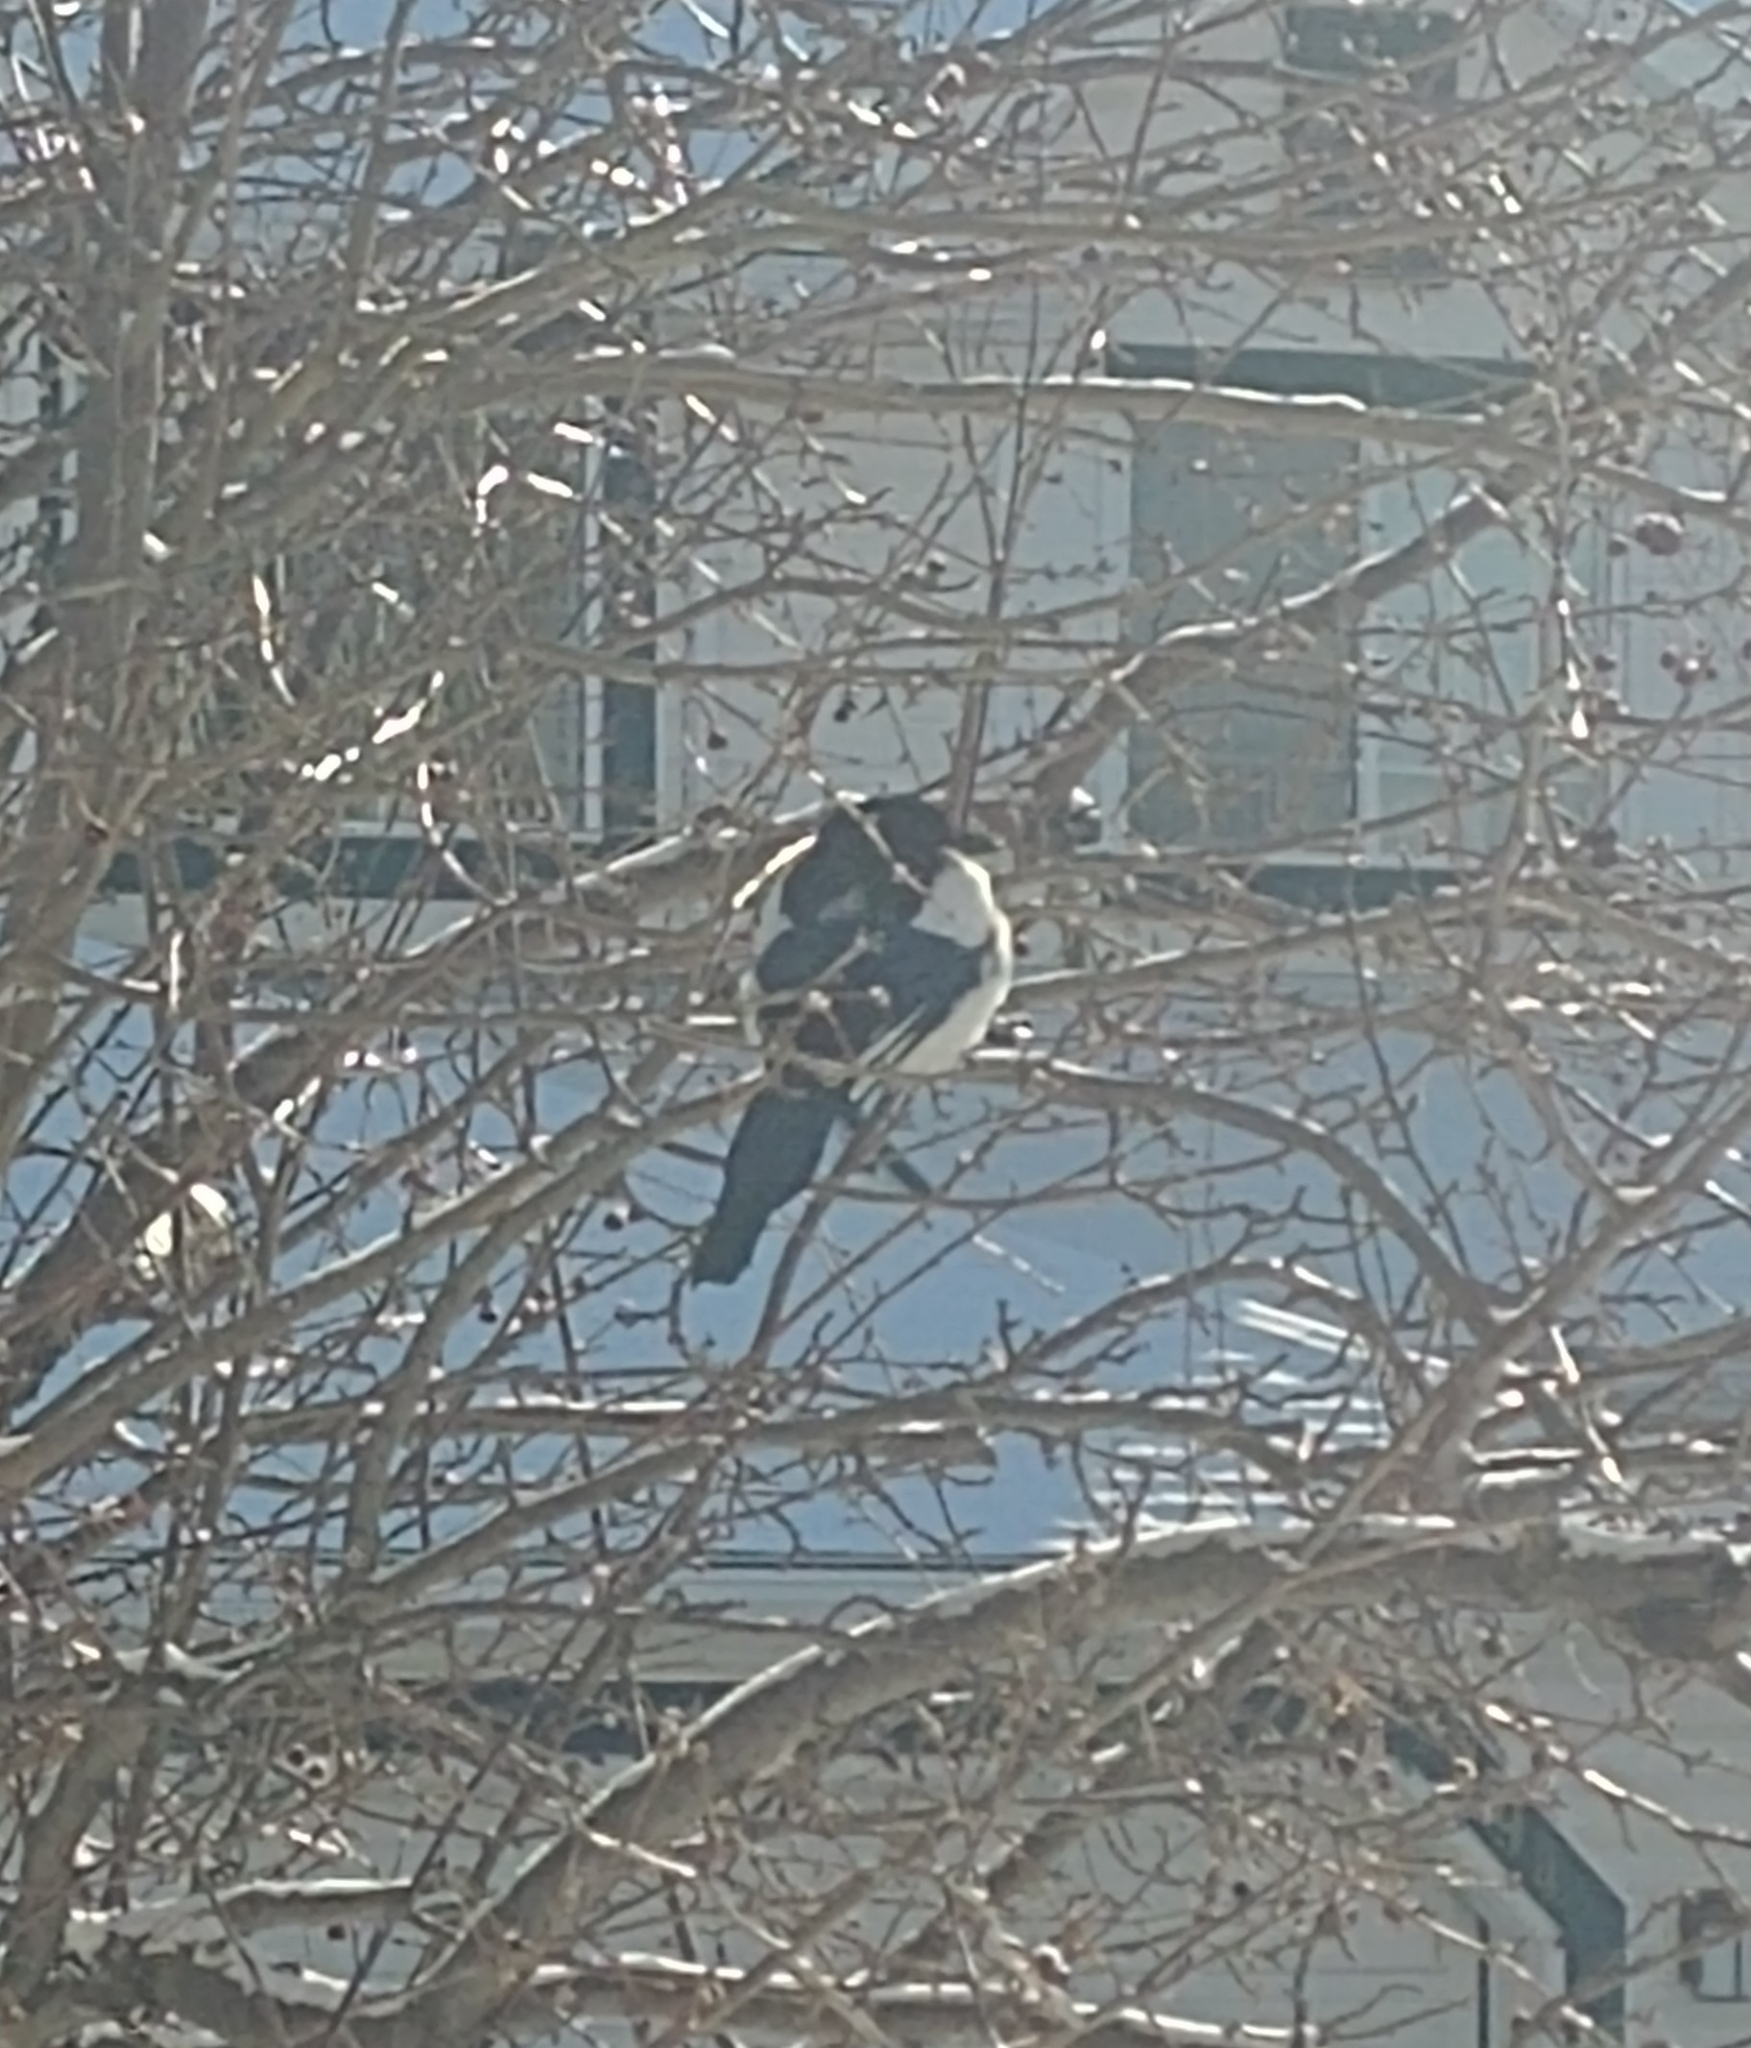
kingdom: Animalia
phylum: Chordata
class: Aves
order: Passeriformes
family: Corvidae
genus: Pica
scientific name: Pica hudsonia
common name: Black-billed magpie
